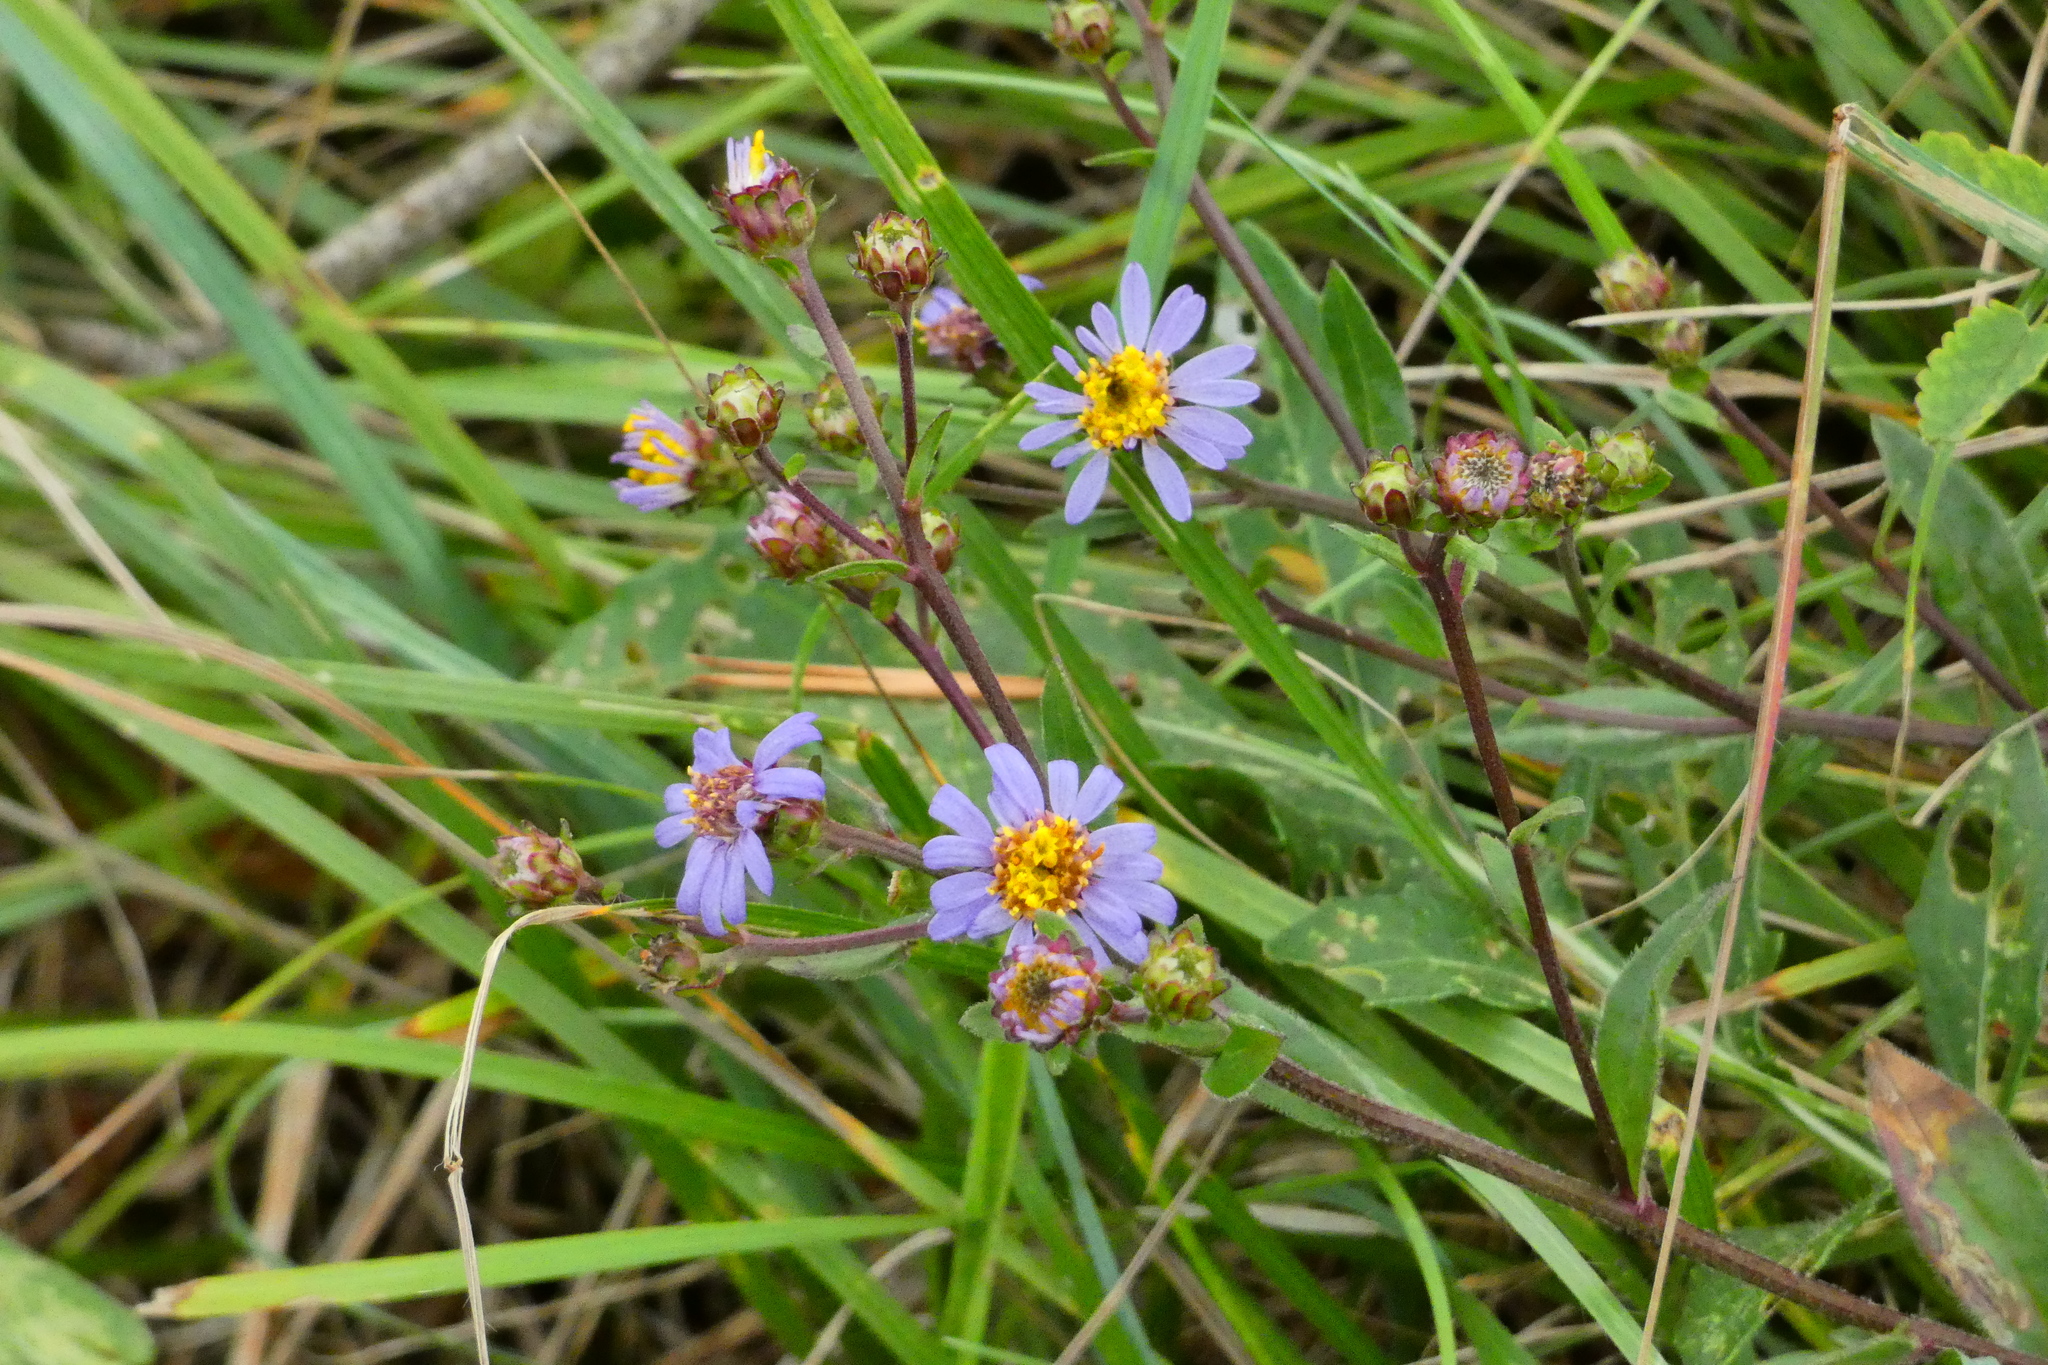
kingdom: Plantae
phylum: Tracheophyta
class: Magnoliopsida
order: Asterales
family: Asteraceae
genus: Aster
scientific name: Aster amellus
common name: European michaelmas daisy
